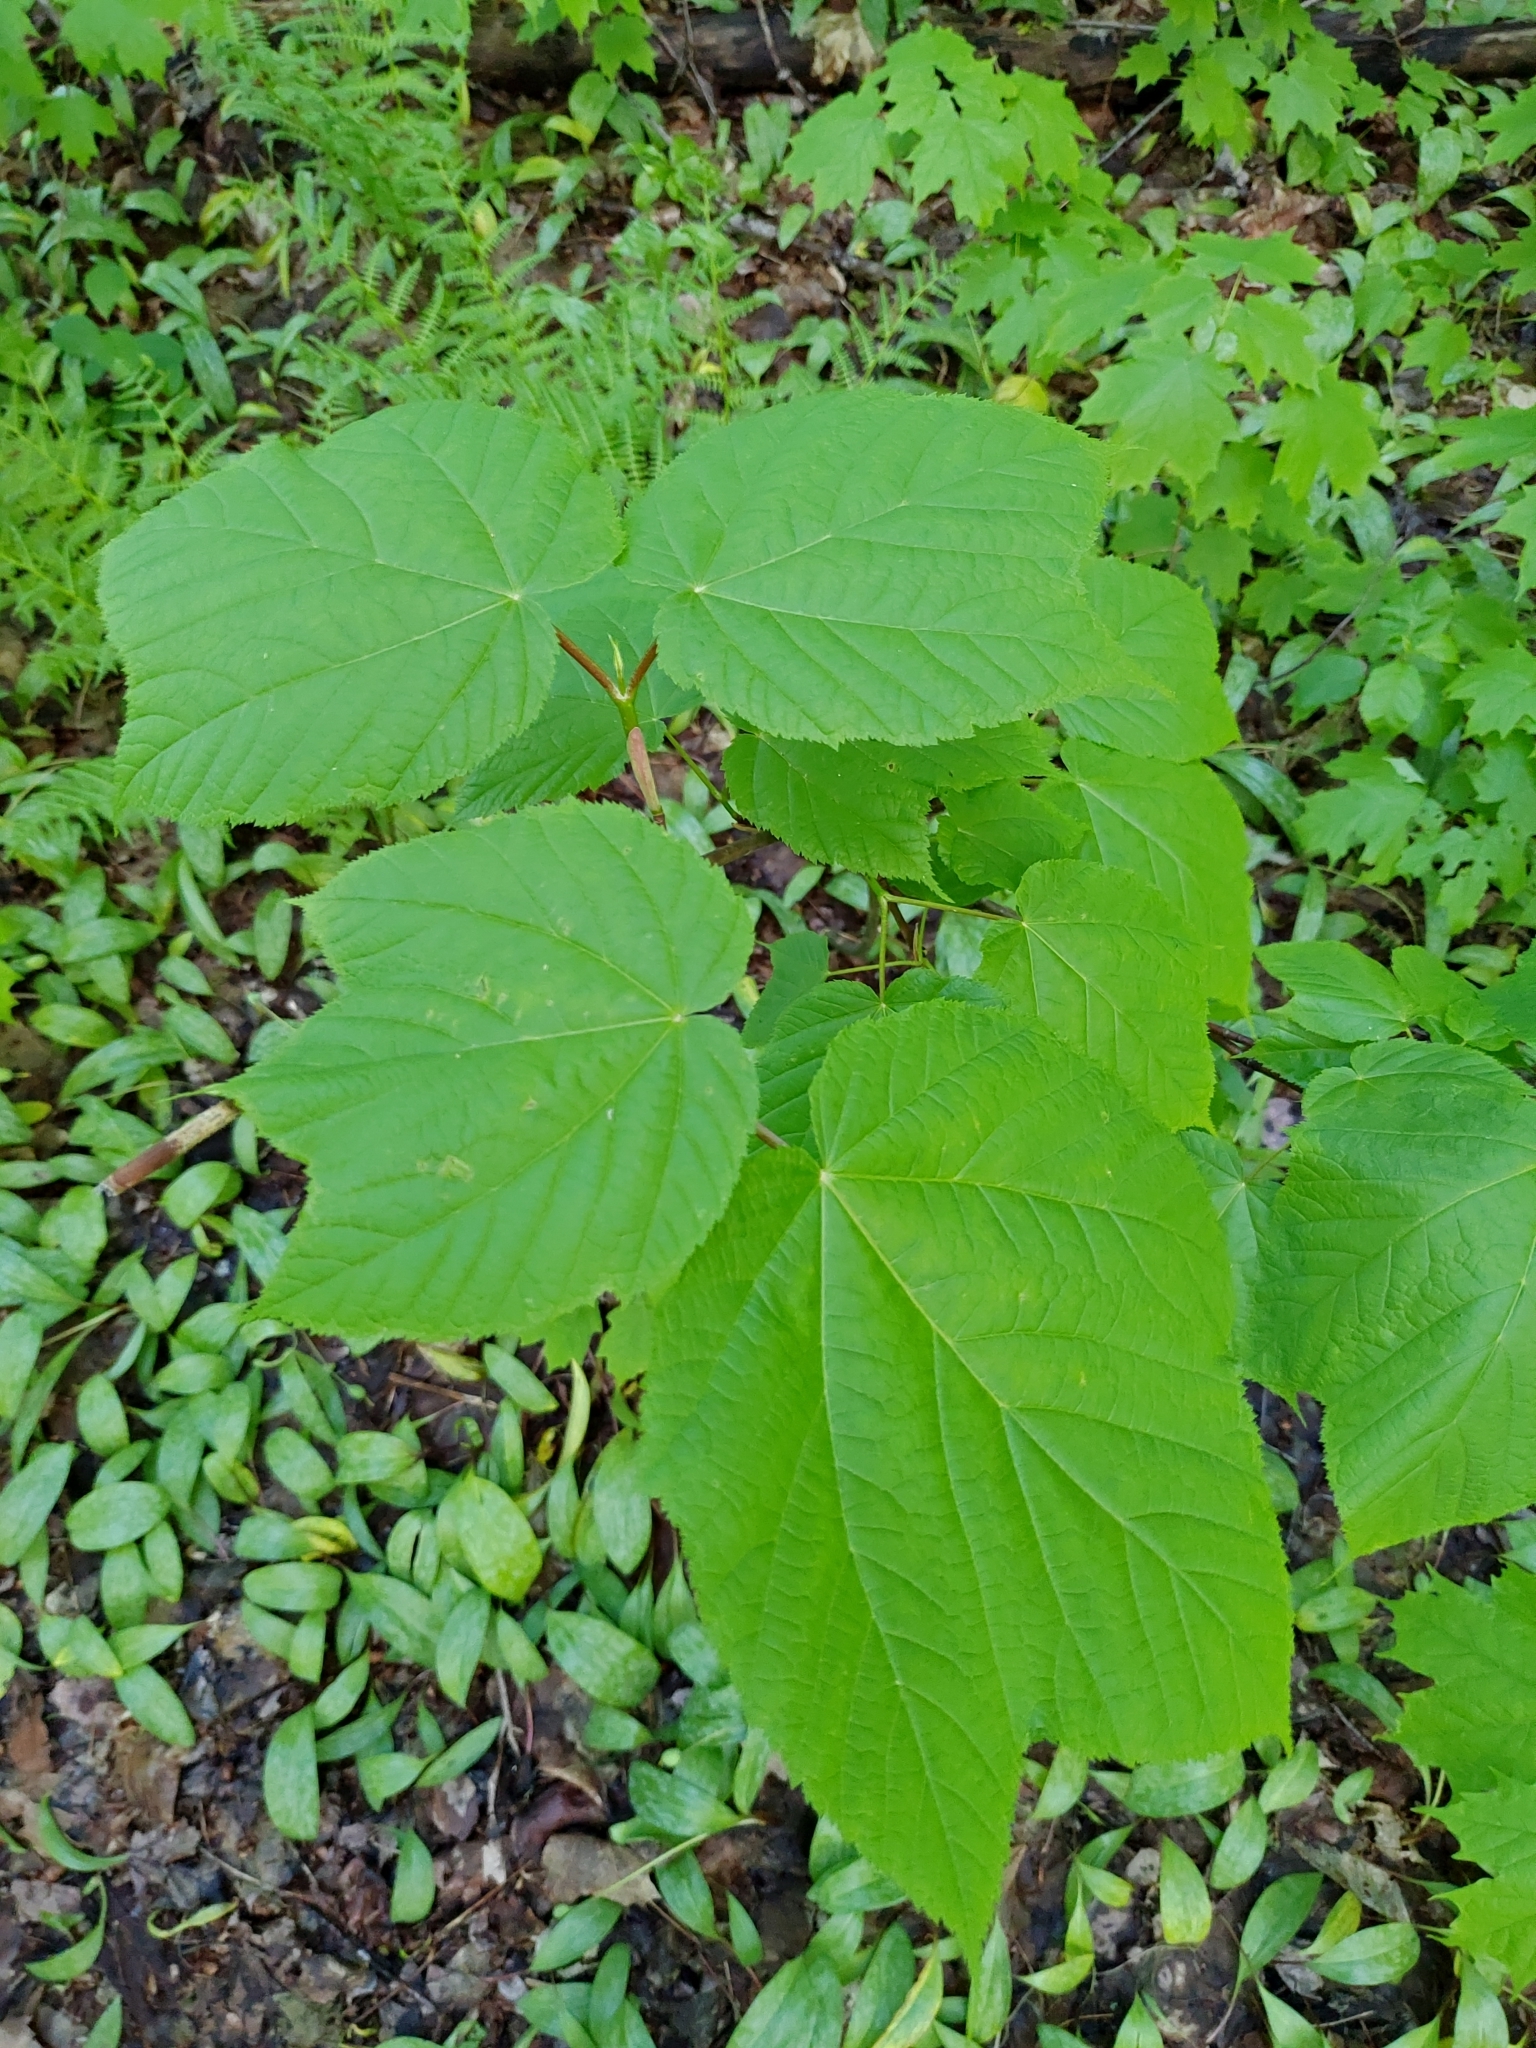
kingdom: Plantae
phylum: Tracheophyta
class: Magnoliopsida
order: Sapindales
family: Sapindaceae
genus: Acer
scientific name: Acer pensylvanicum
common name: Moosewood
